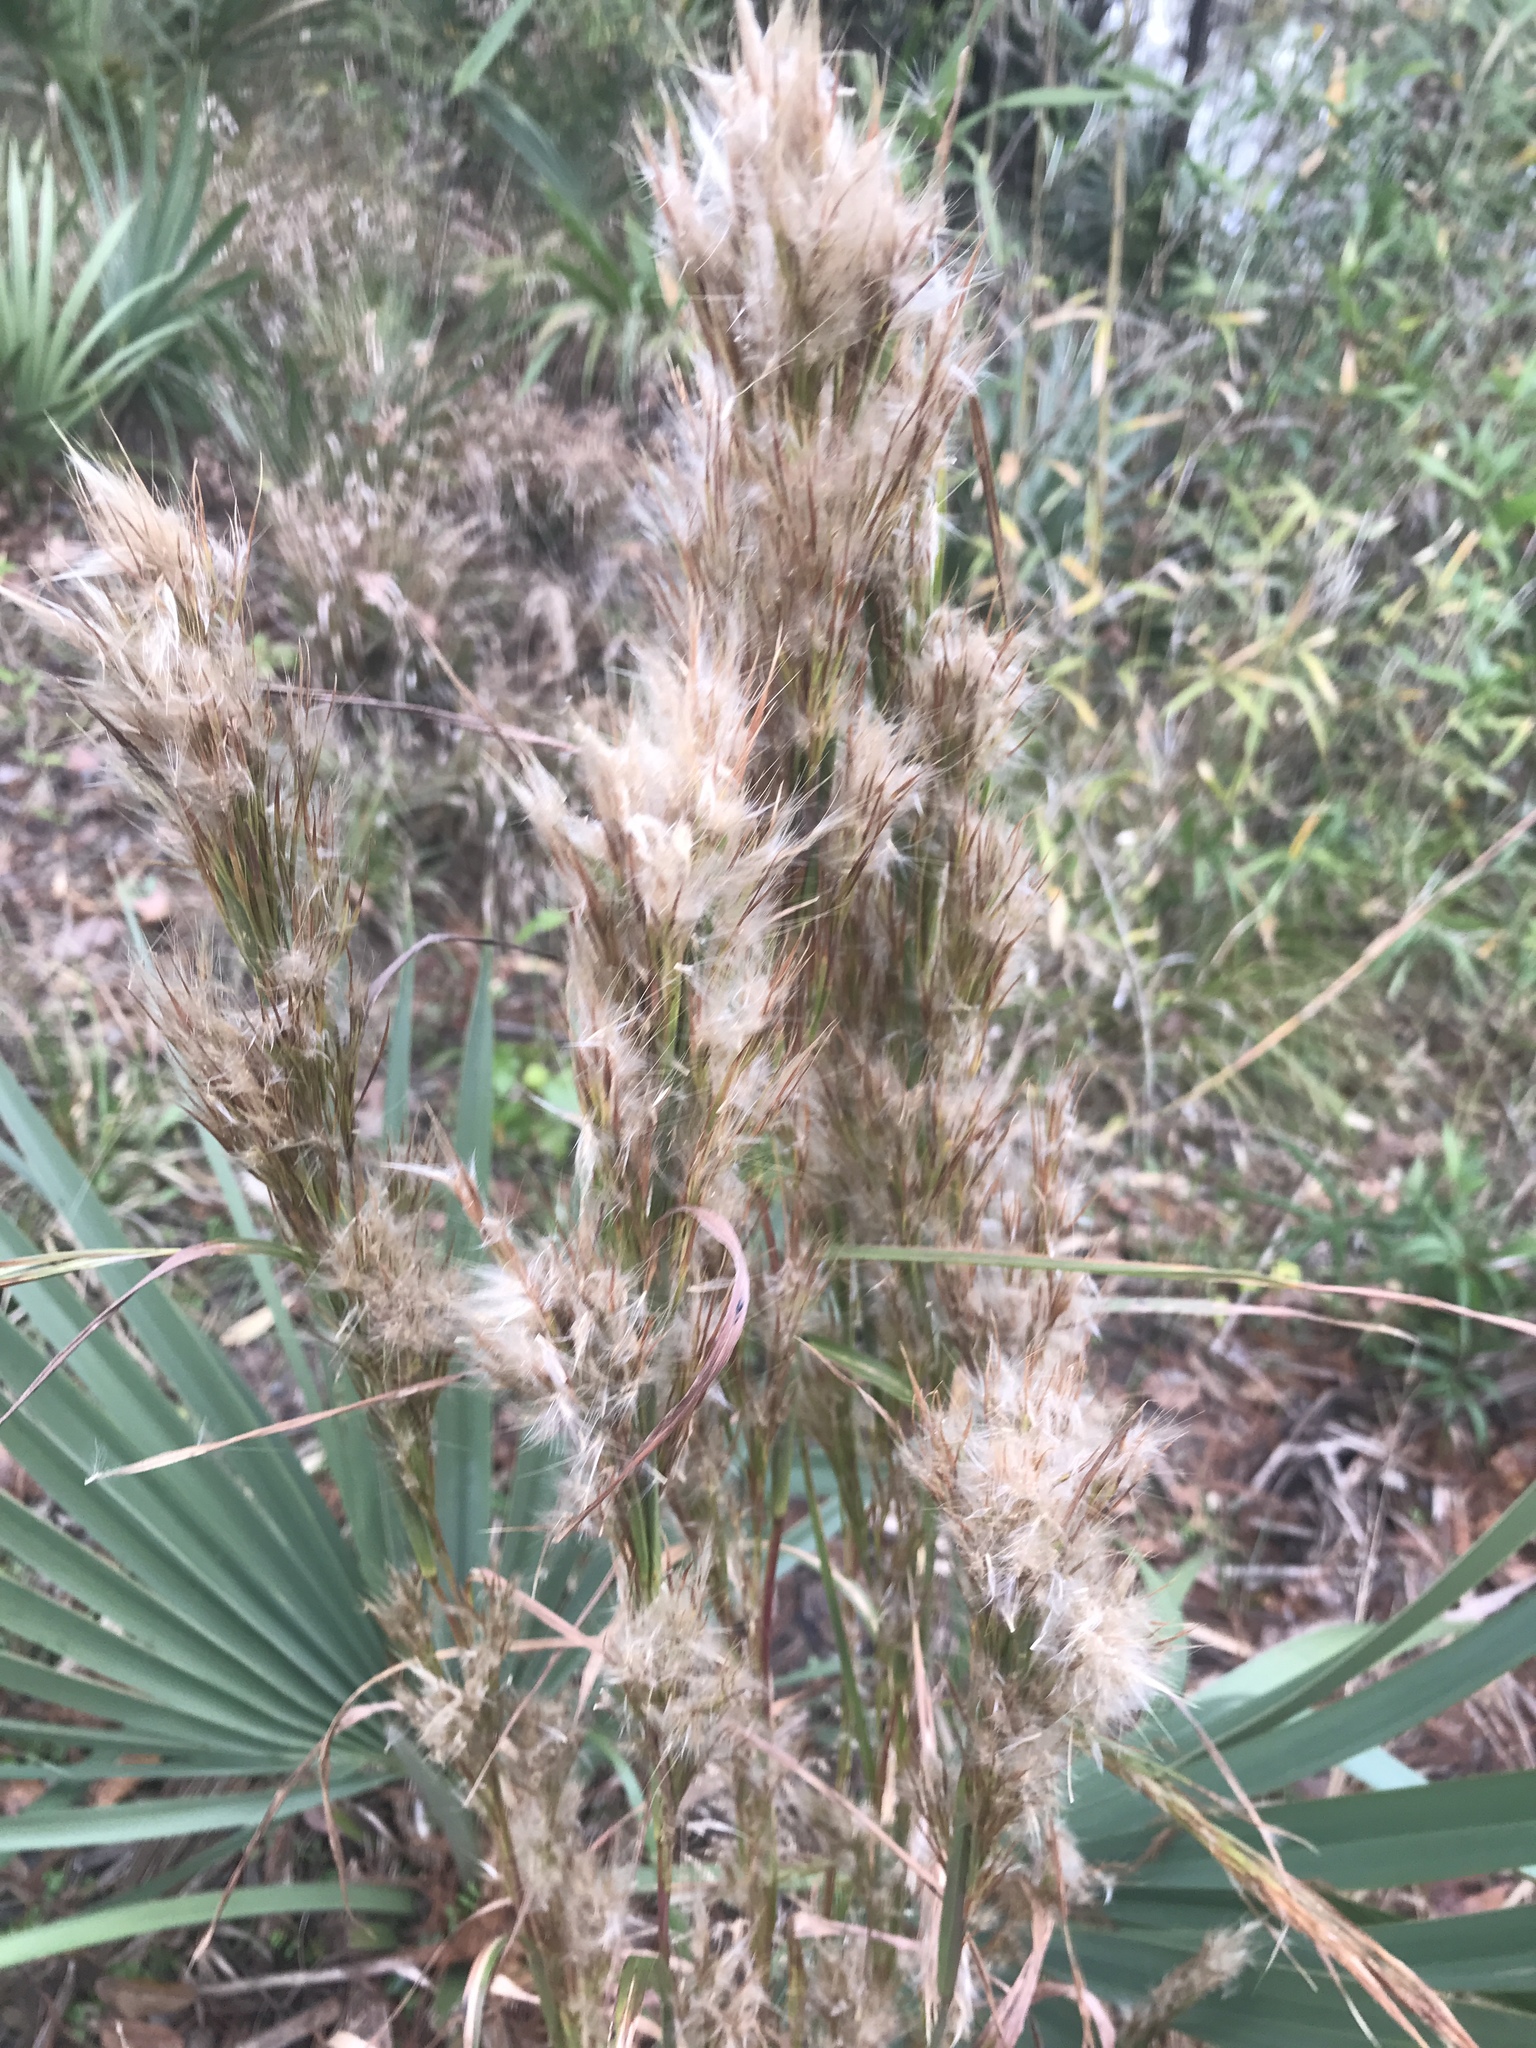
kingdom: Plantae
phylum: Tracheophyta
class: Liliopsida
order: Poales
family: Poaceae
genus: Andropogon
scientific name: Andropogon tenuispatheus
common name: Bushy bluestem
